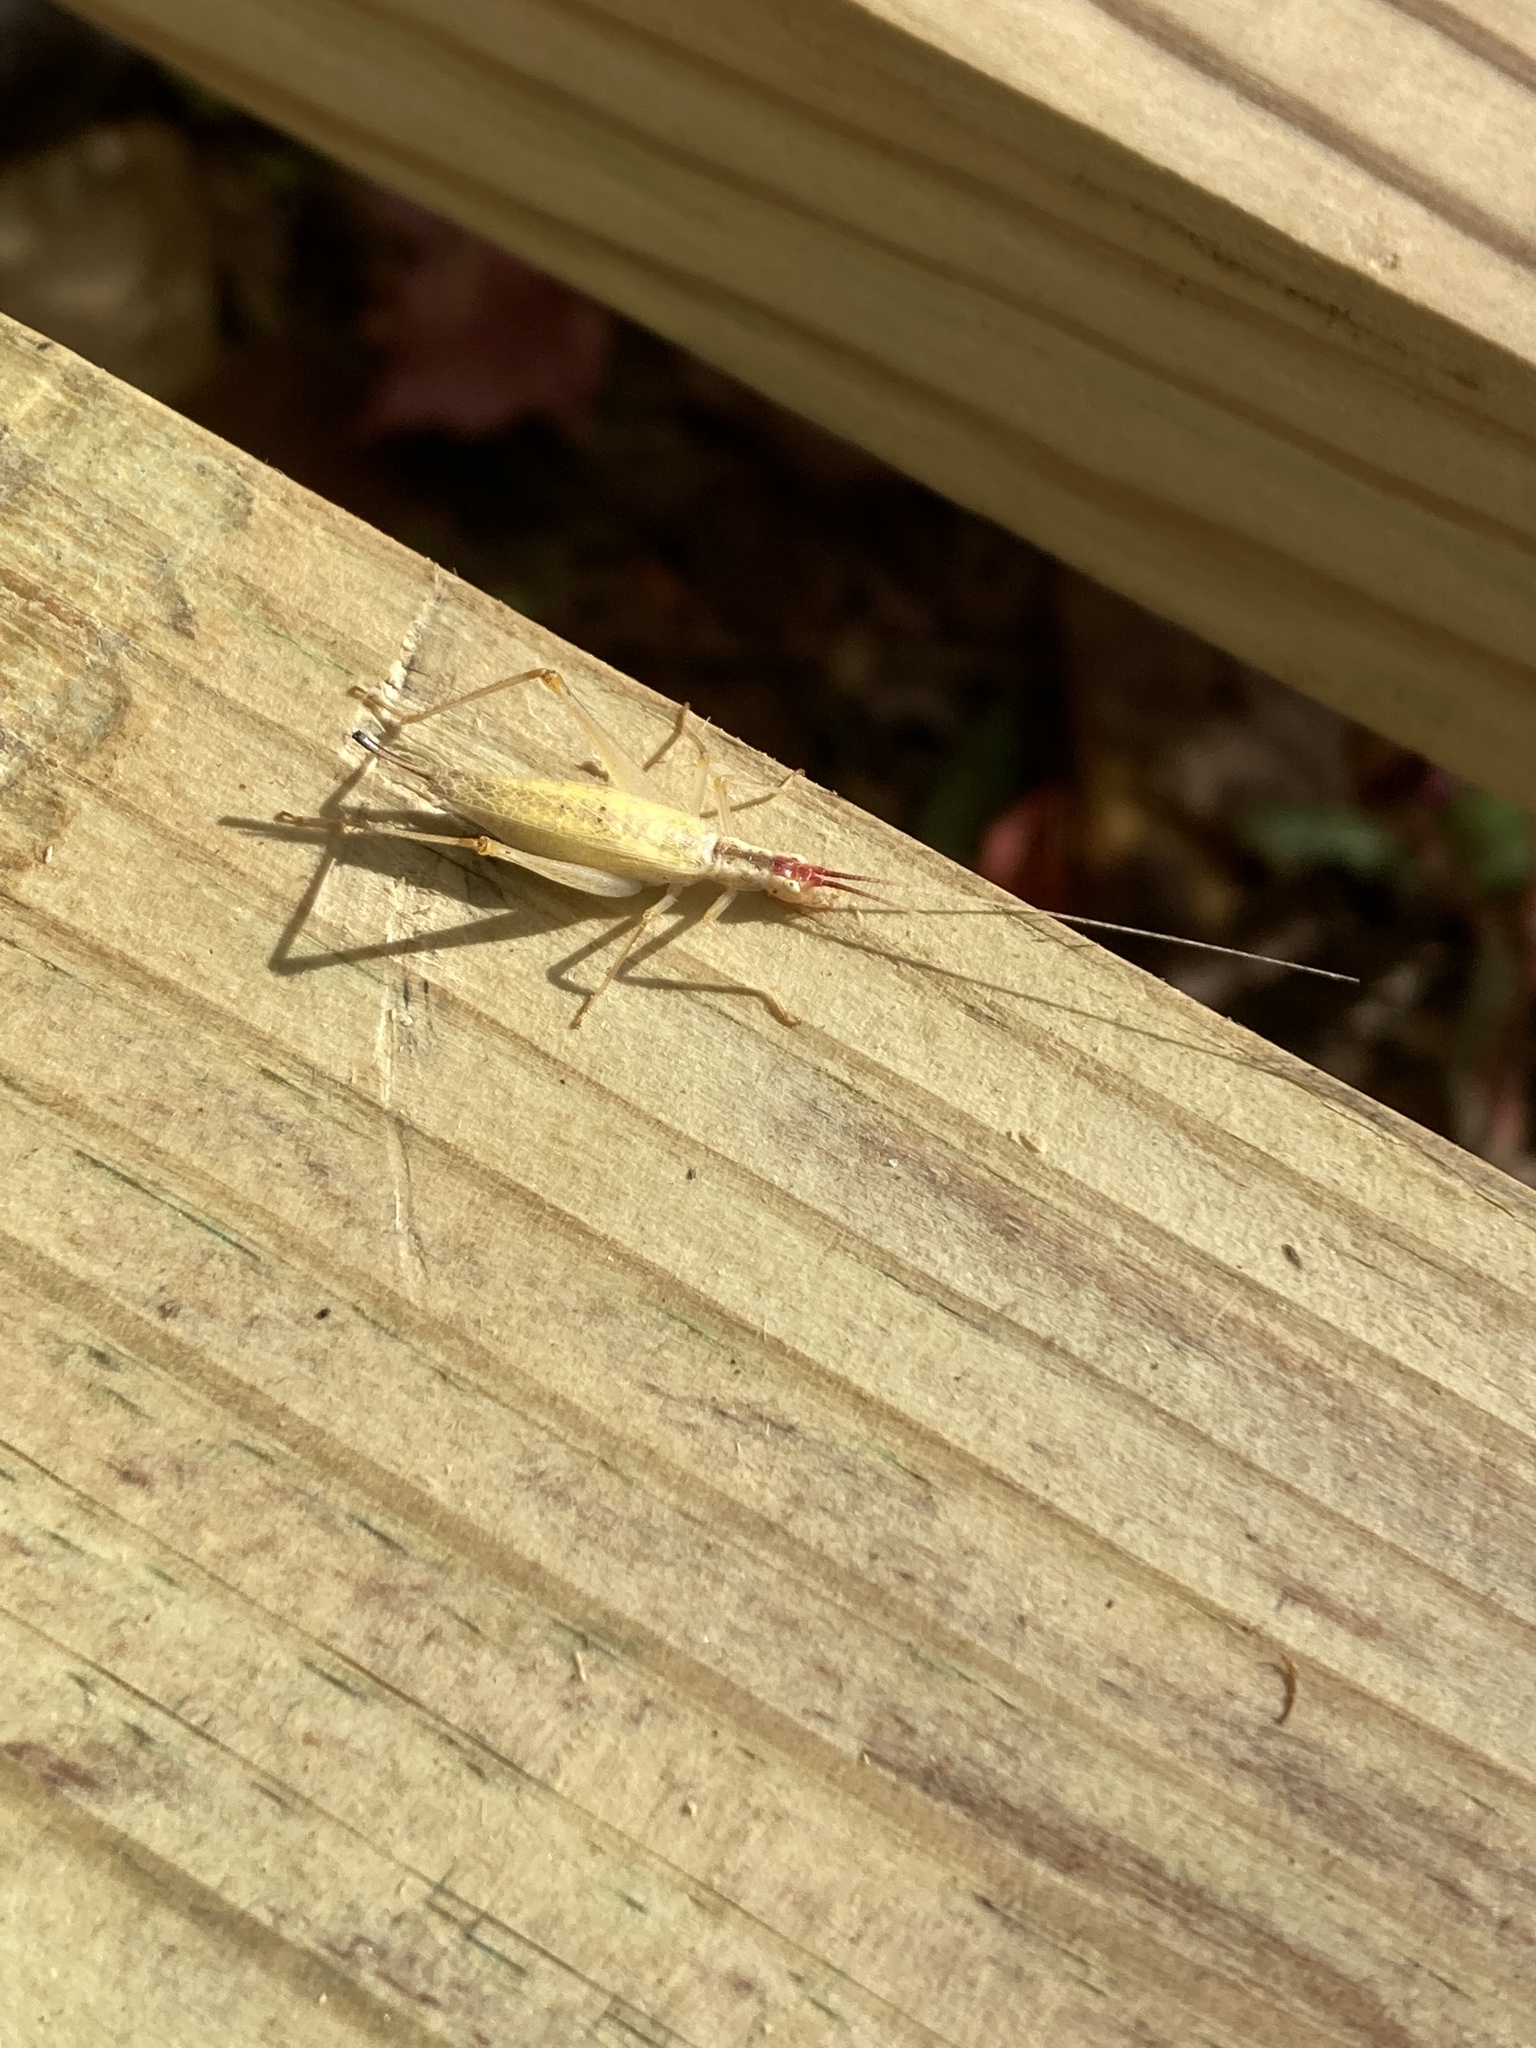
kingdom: Animalia
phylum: Arthropoda
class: Insecta
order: Orthoptera
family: Gryllidae
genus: Oecanthus
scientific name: Oecanthus latipennis
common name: Broad-winged tree cricket
